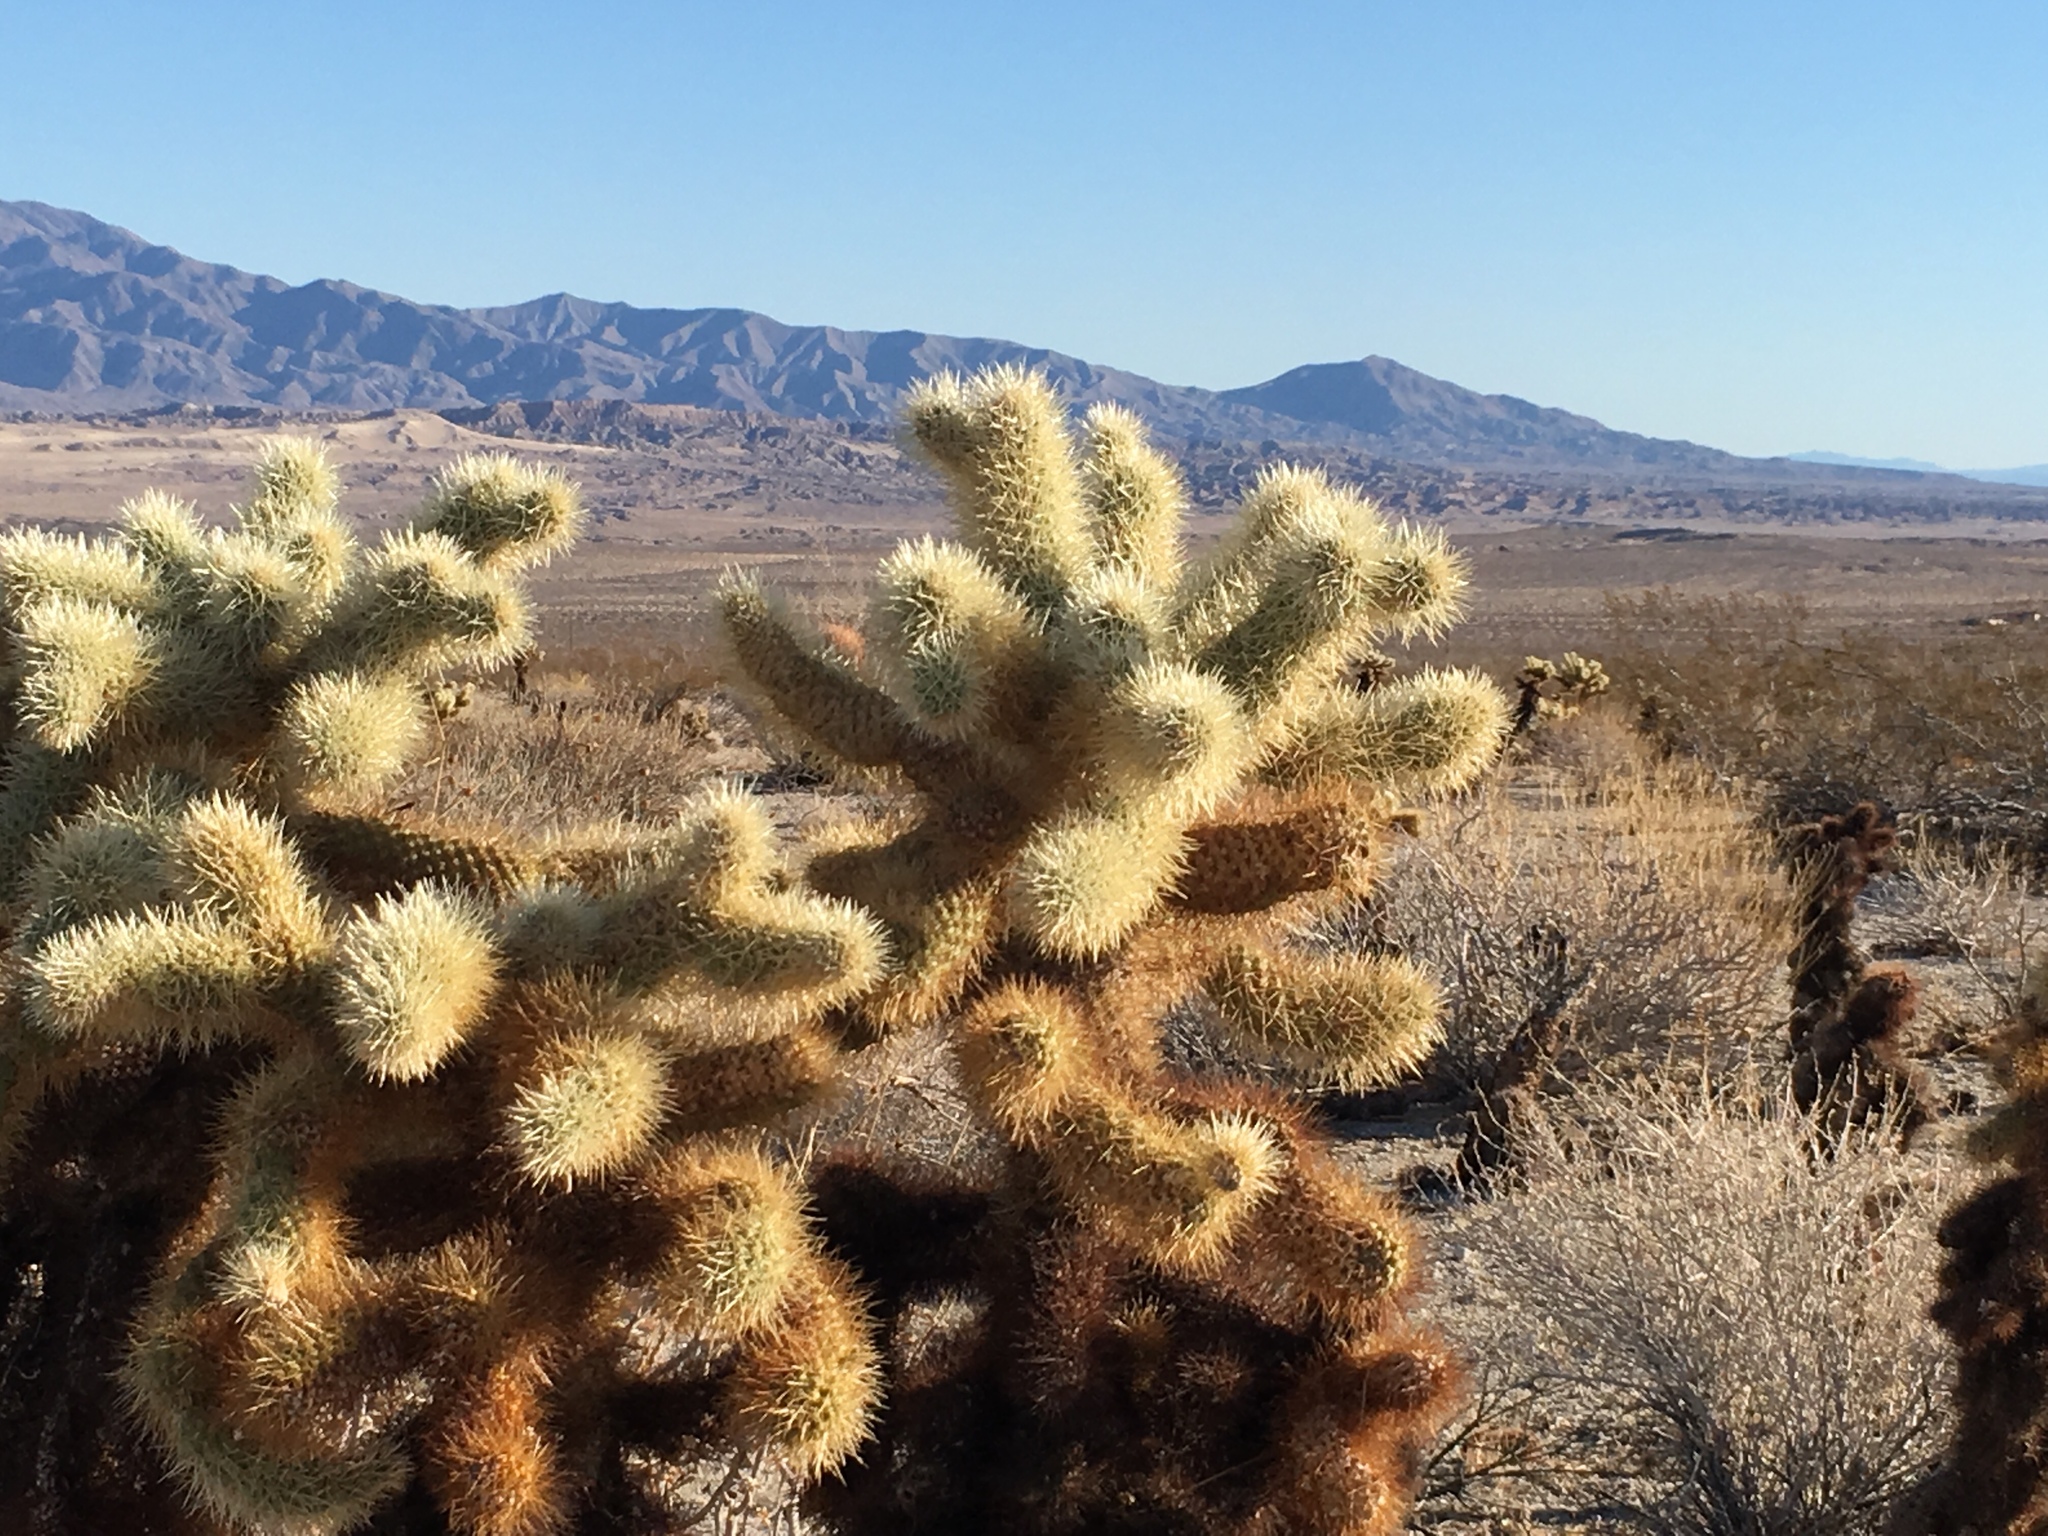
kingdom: Plantae
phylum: Tracheophyta
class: Magnoliopsida
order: Caryophyllales
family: Cactaceae
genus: Cylindropuntia
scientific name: Cylindropuntia fosbergii
